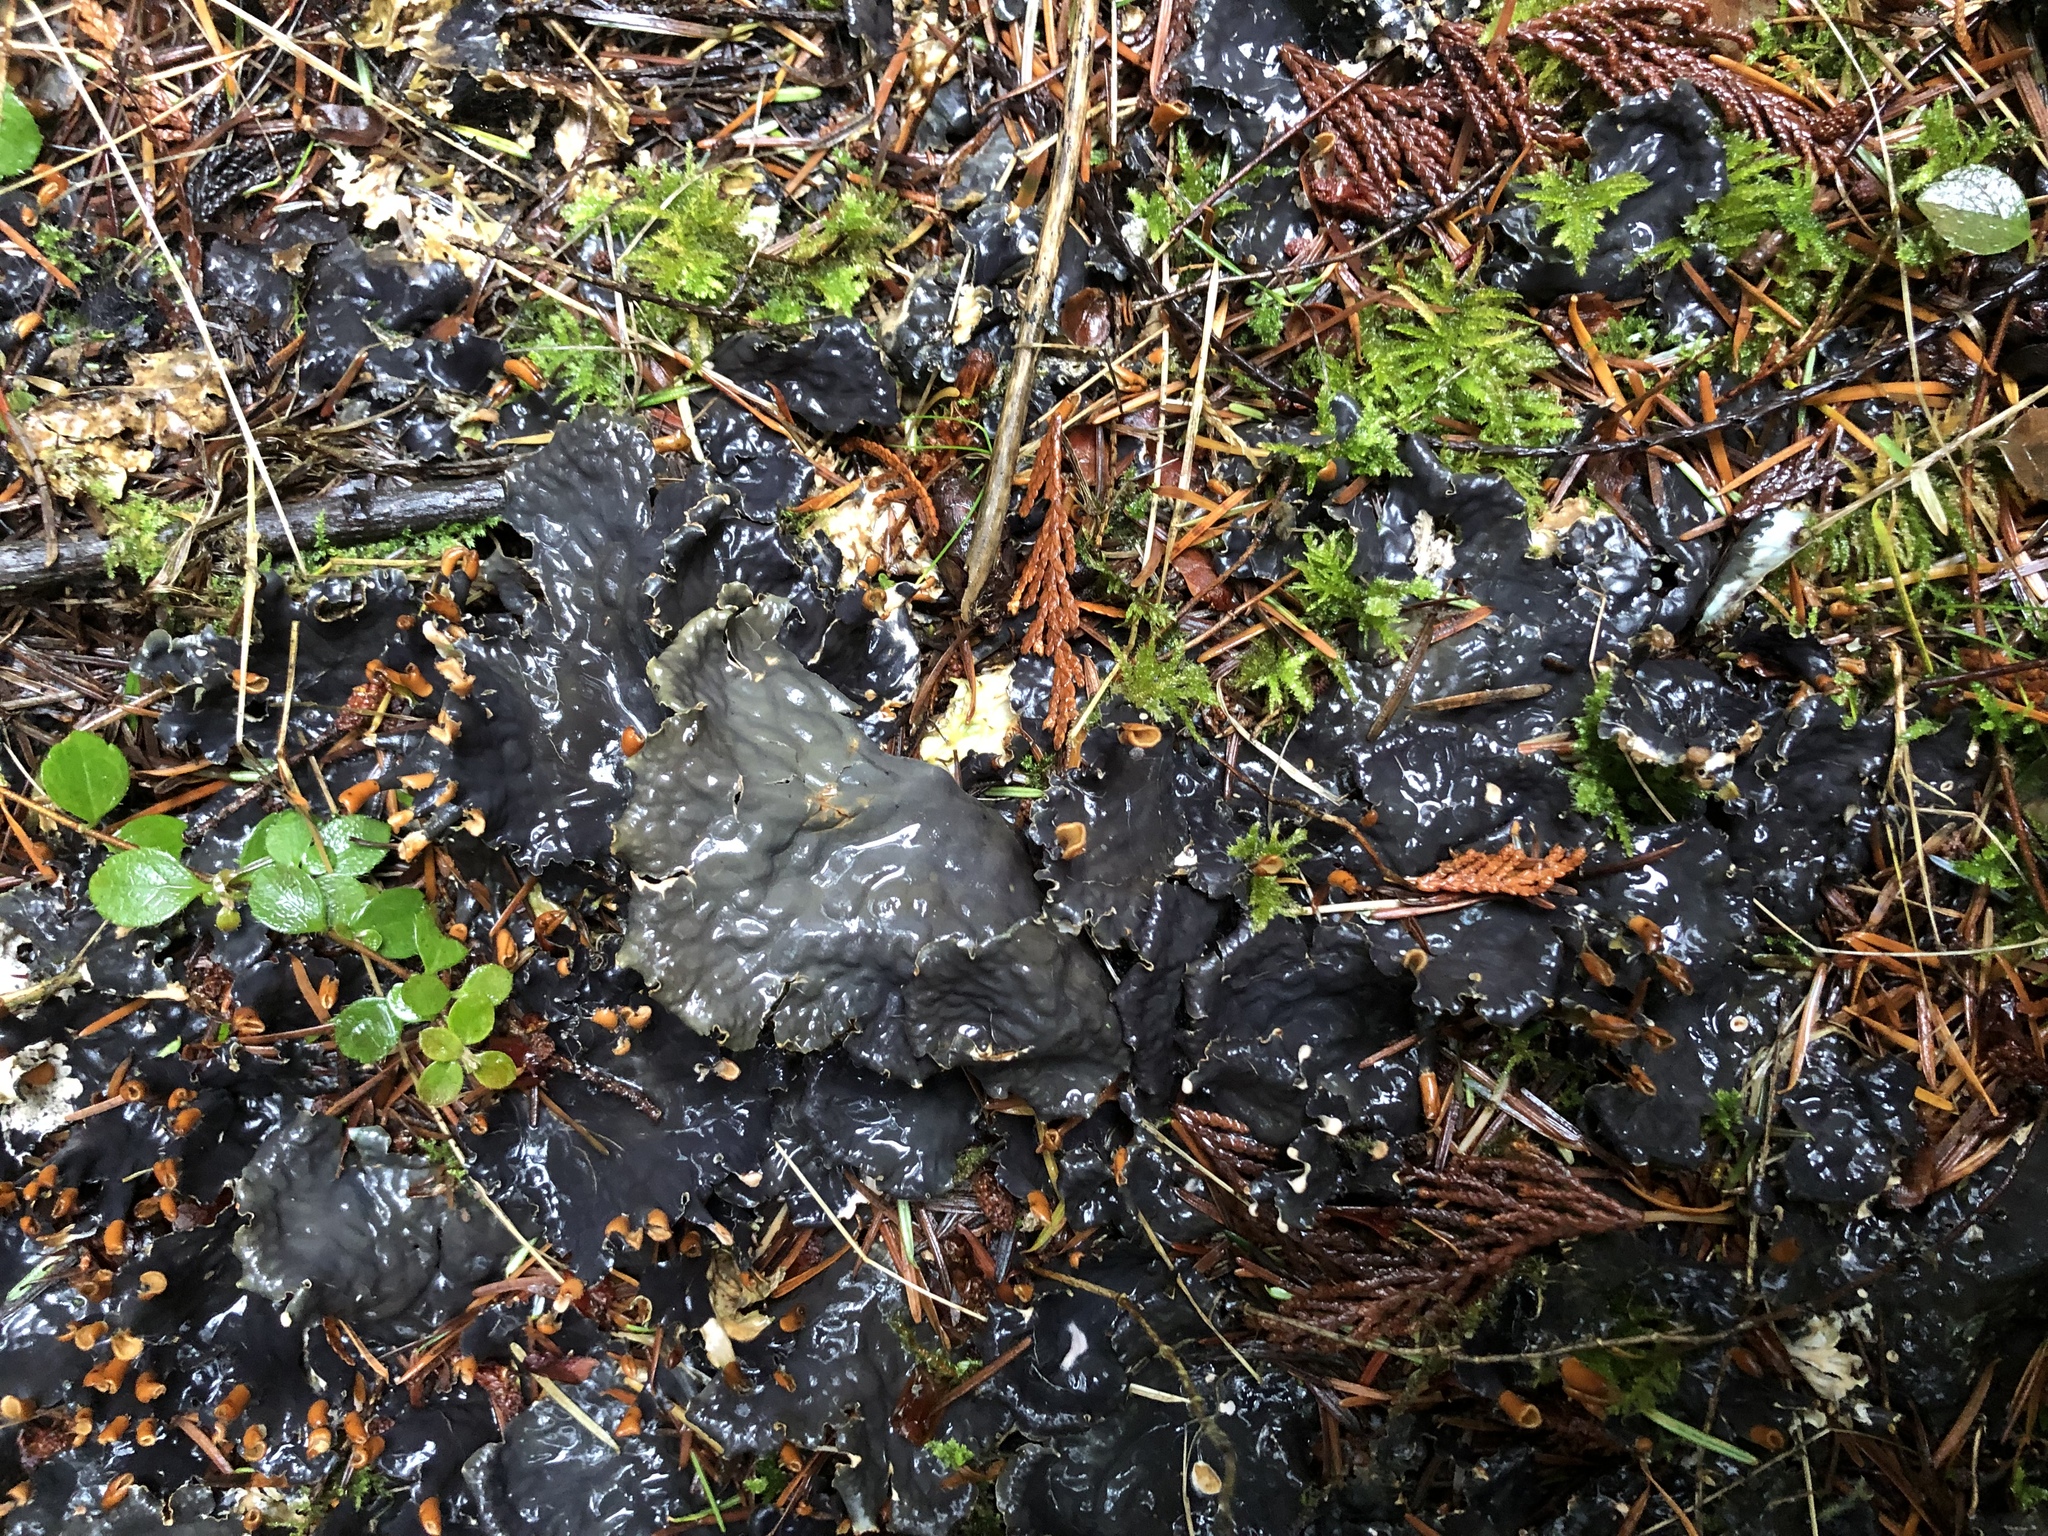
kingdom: Fungi
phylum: Ascomycota
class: Lecanoromycetes
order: Peltigerales
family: Peltigeraceae
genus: Peltigera
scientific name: Peltigera neopolydactyla
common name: Carpet pelt
